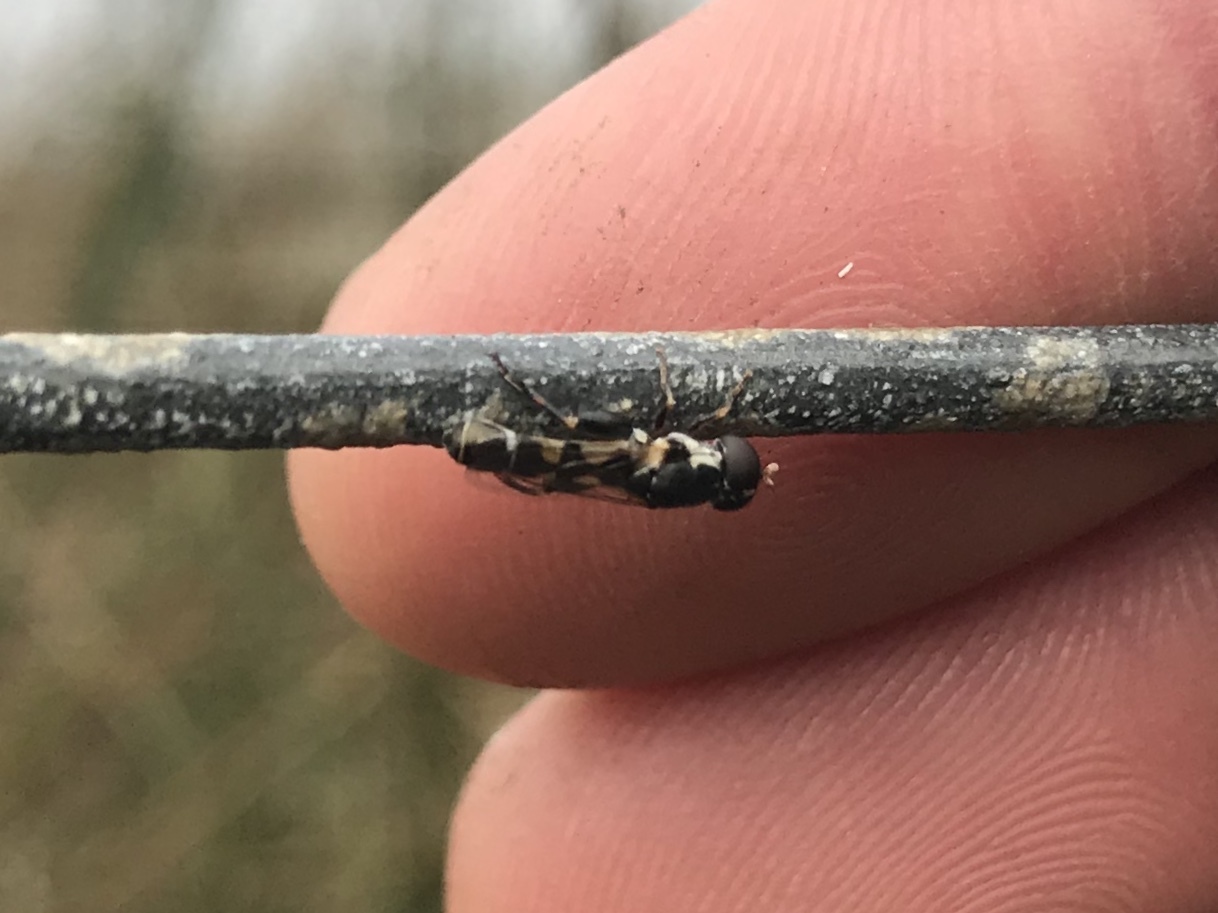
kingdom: Animalia
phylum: Arthropoda
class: Insecta
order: Diptera
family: Syrphidae
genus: Syritta
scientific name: Syritta pipiens
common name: Hover fly
